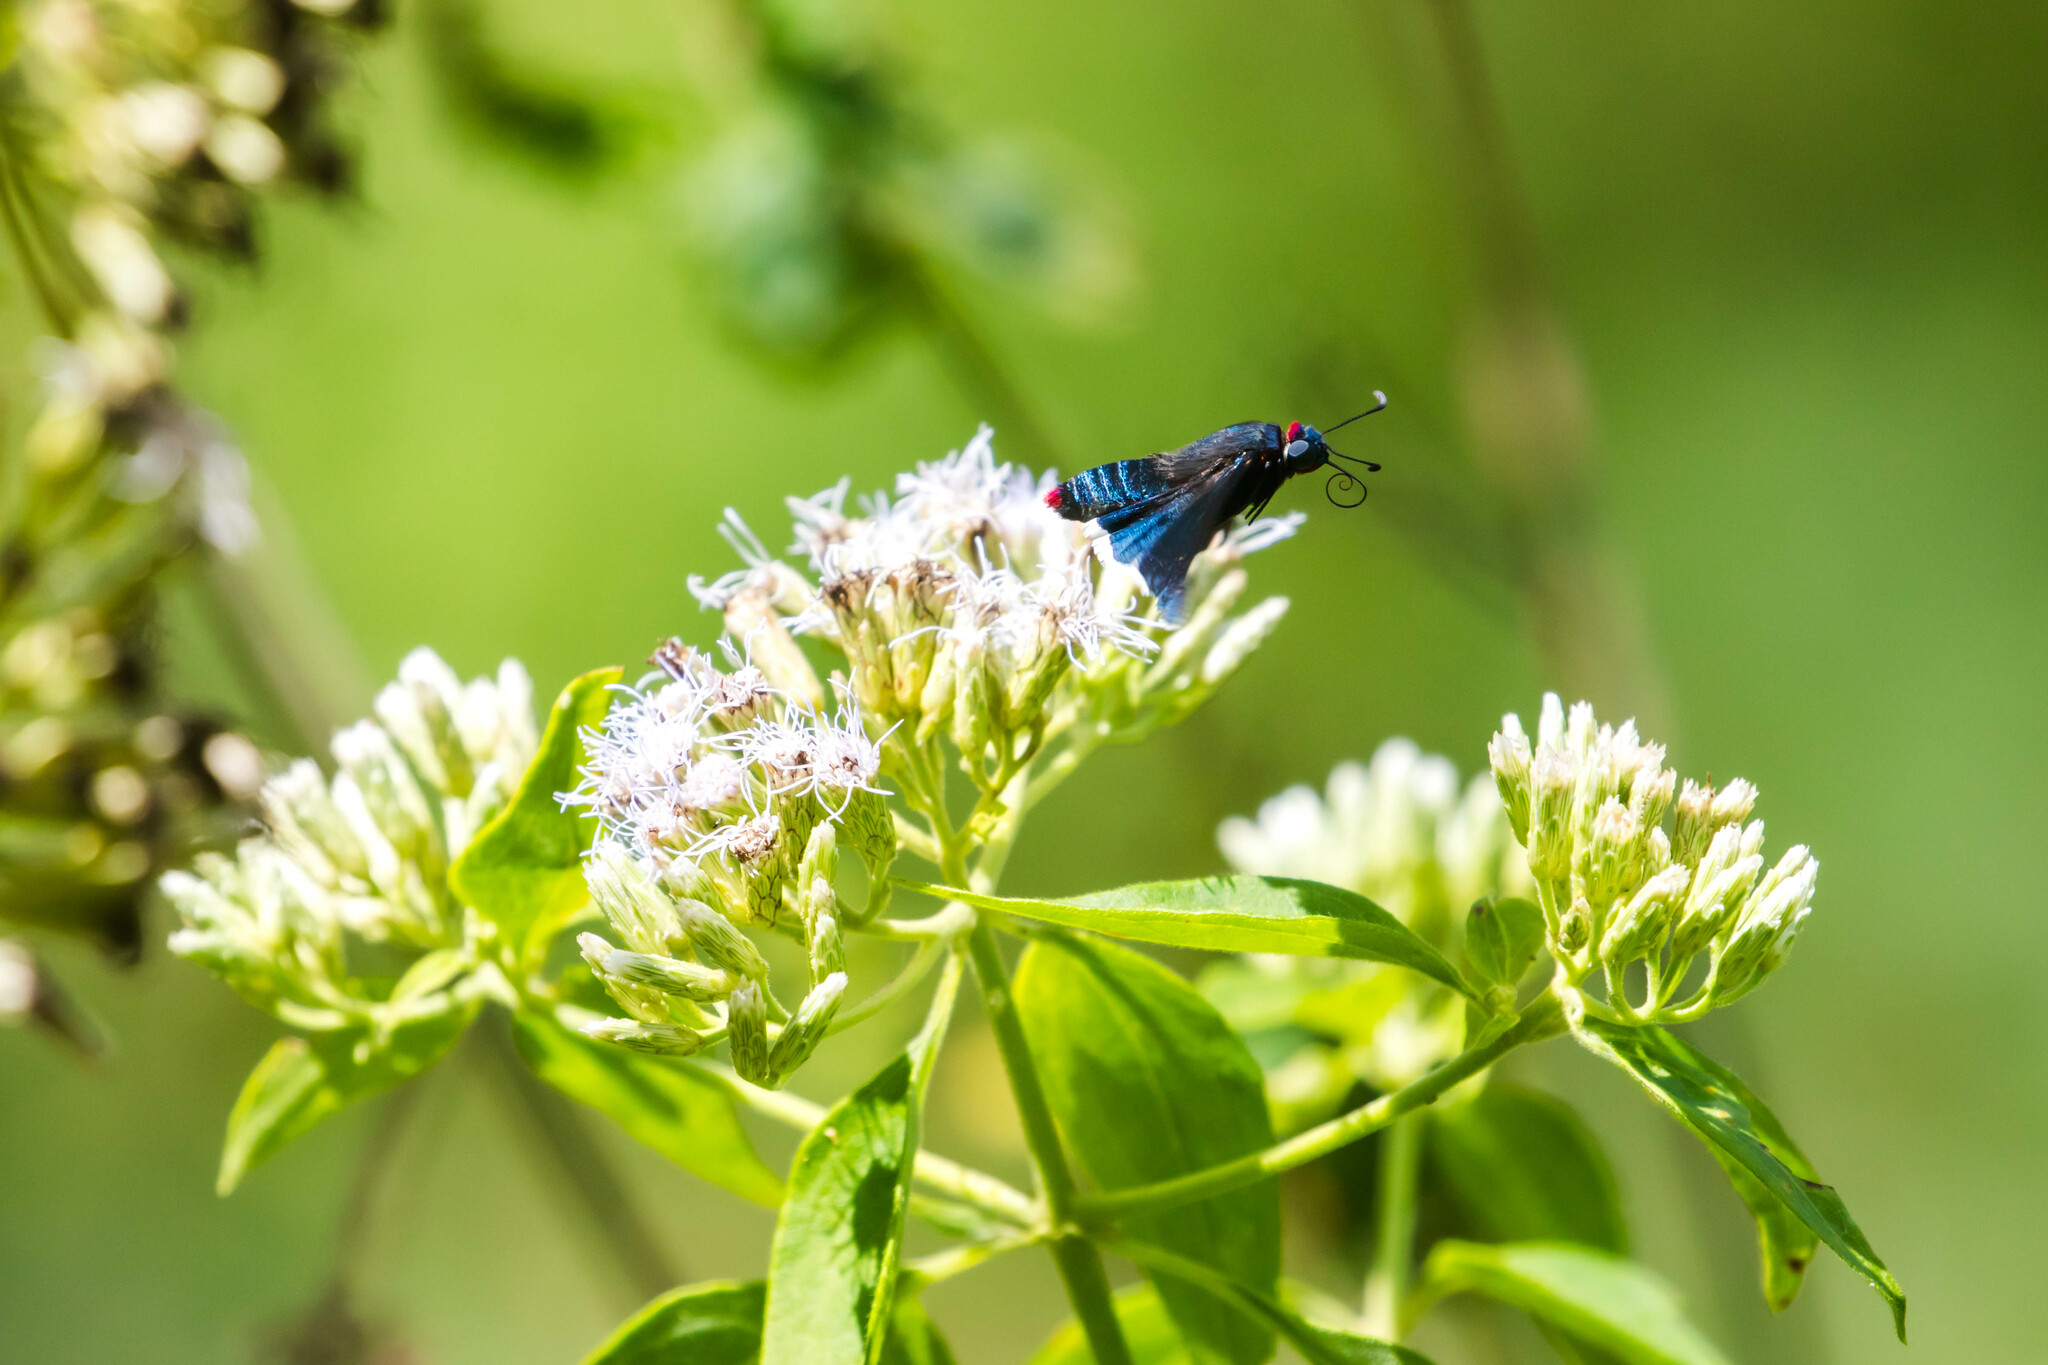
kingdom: Animalia
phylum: Arthropoda
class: Insecta
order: Lepidoptera
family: Hesperiidae
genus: Mysoria
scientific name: Mysoria barcastus
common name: Royal firetip
